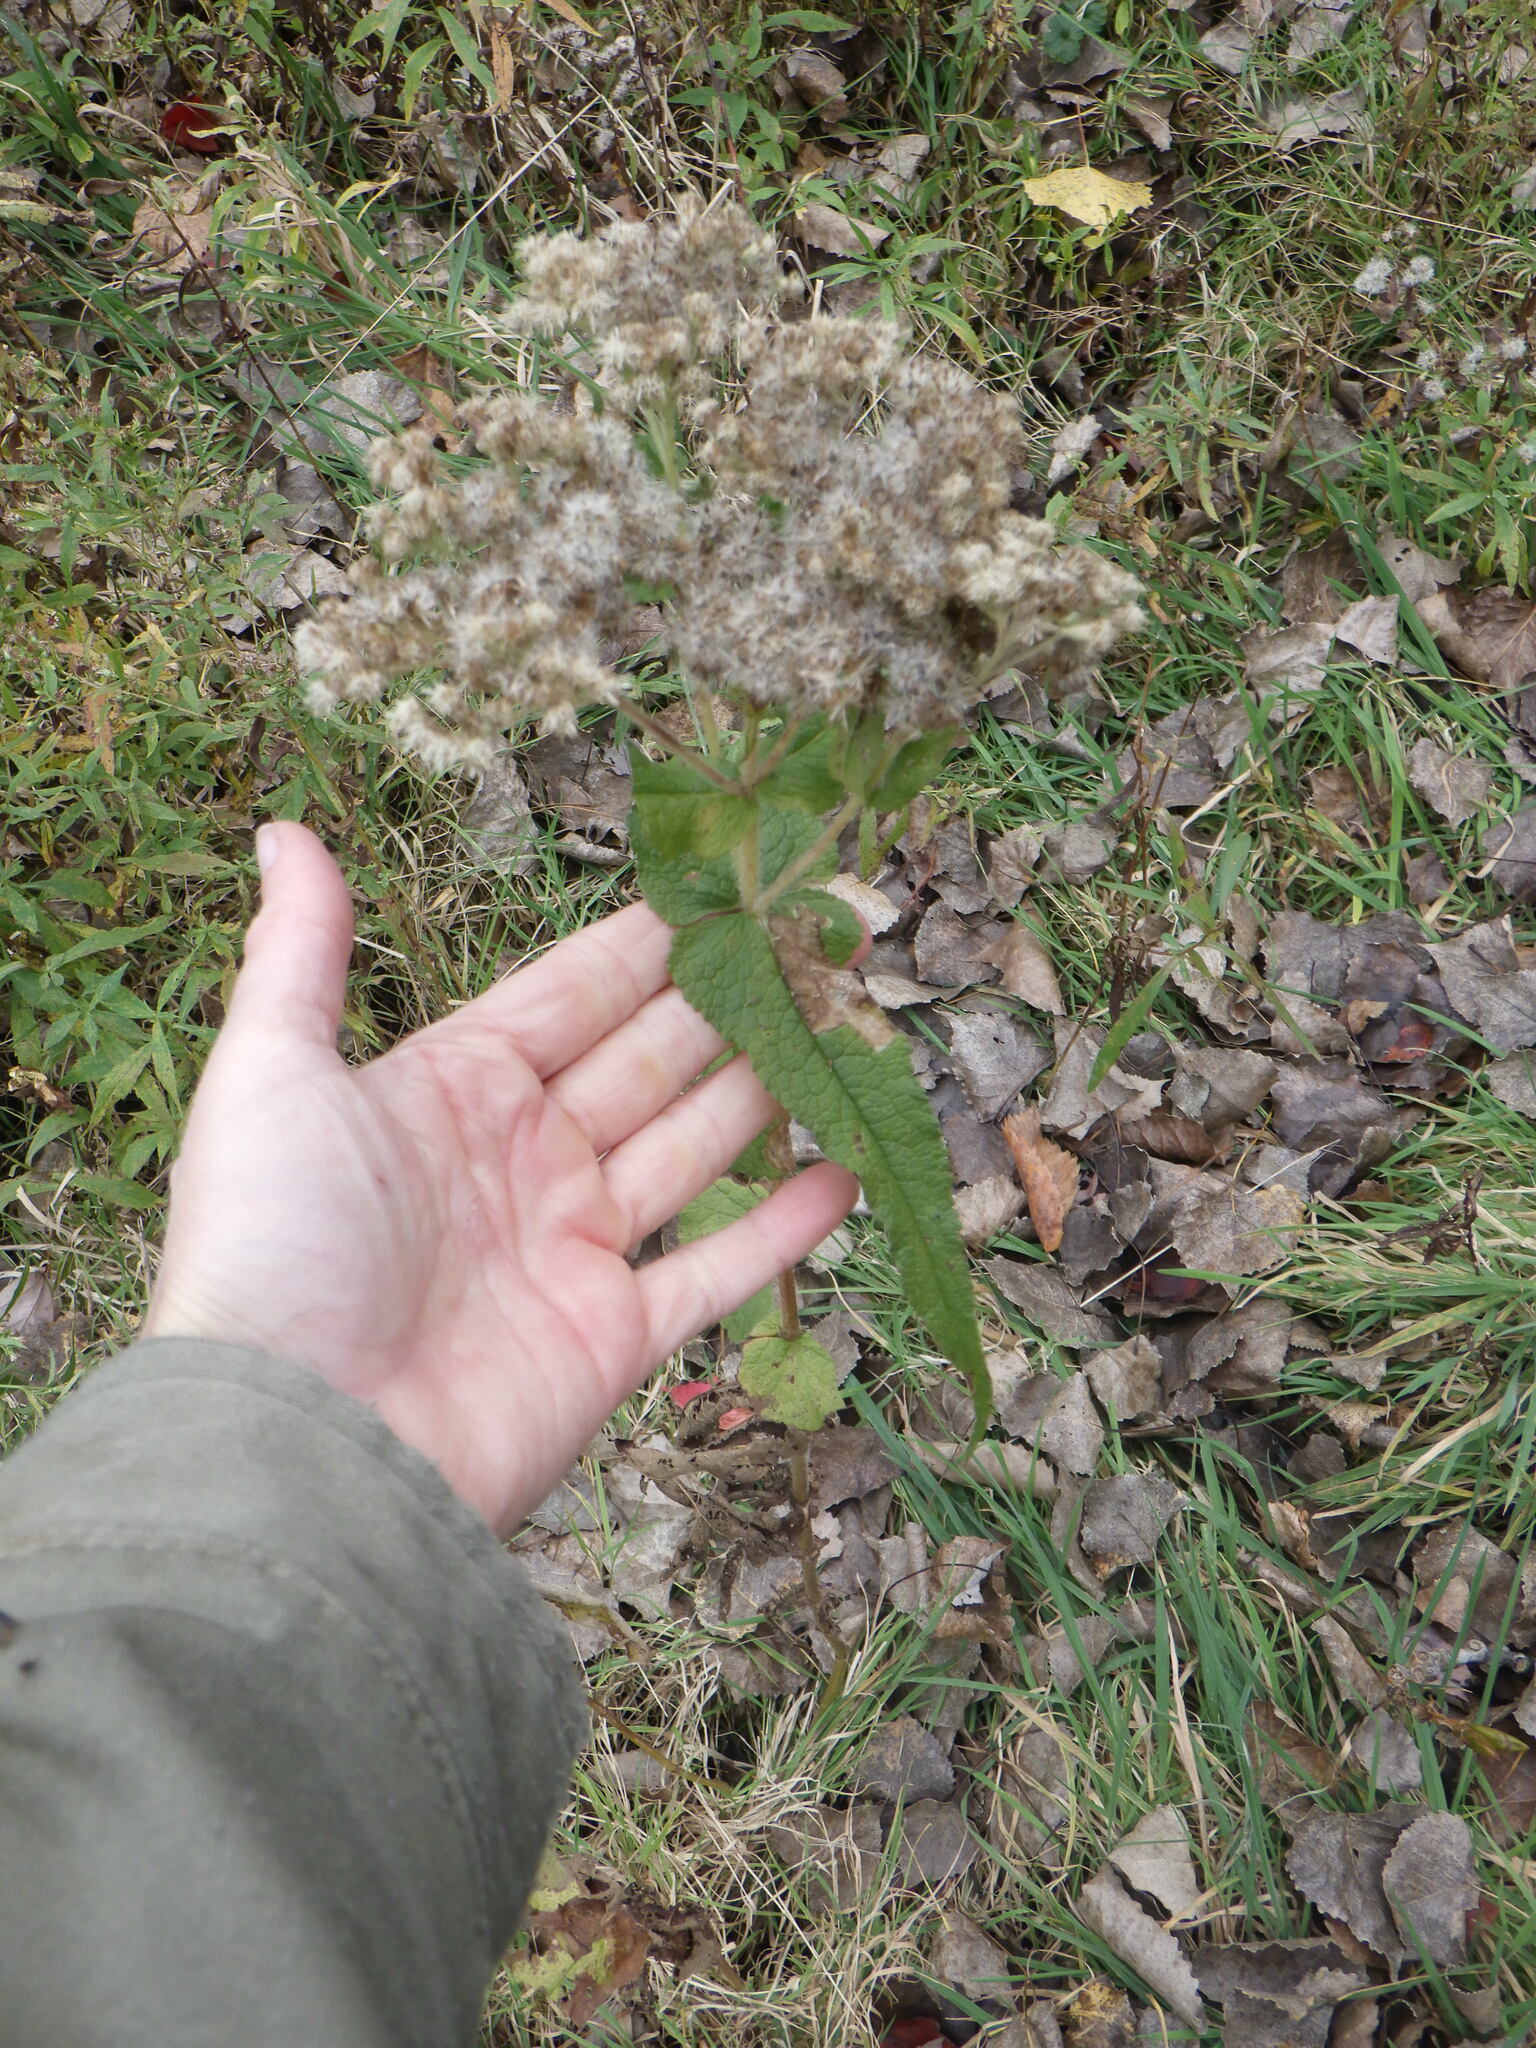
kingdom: Plantae
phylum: Tracheophyta
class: Magnoliopsida
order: Asterales
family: Asteraceae
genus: Eupatorium
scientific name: Eupatorium perfoliatum
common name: Boneset
